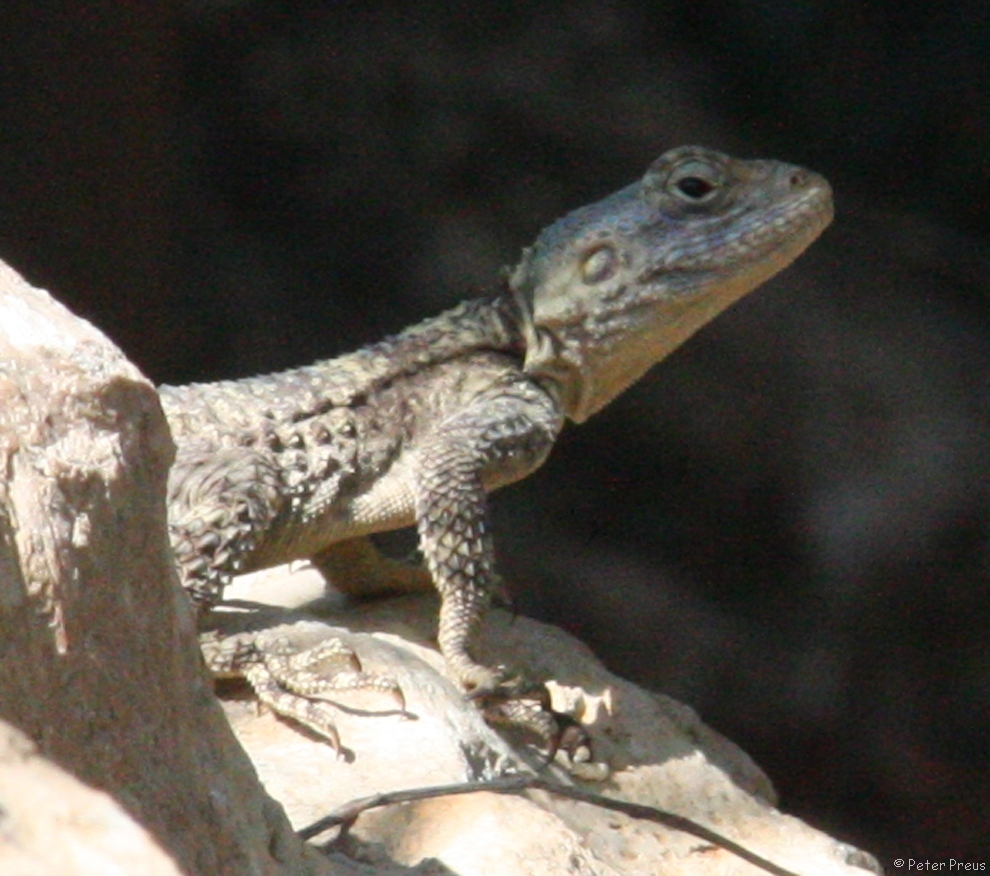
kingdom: Animalia
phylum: Chordata
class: Squamata
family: Agamidae
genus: Stellagama
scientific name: Stellagama stellio
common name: Starred agama
